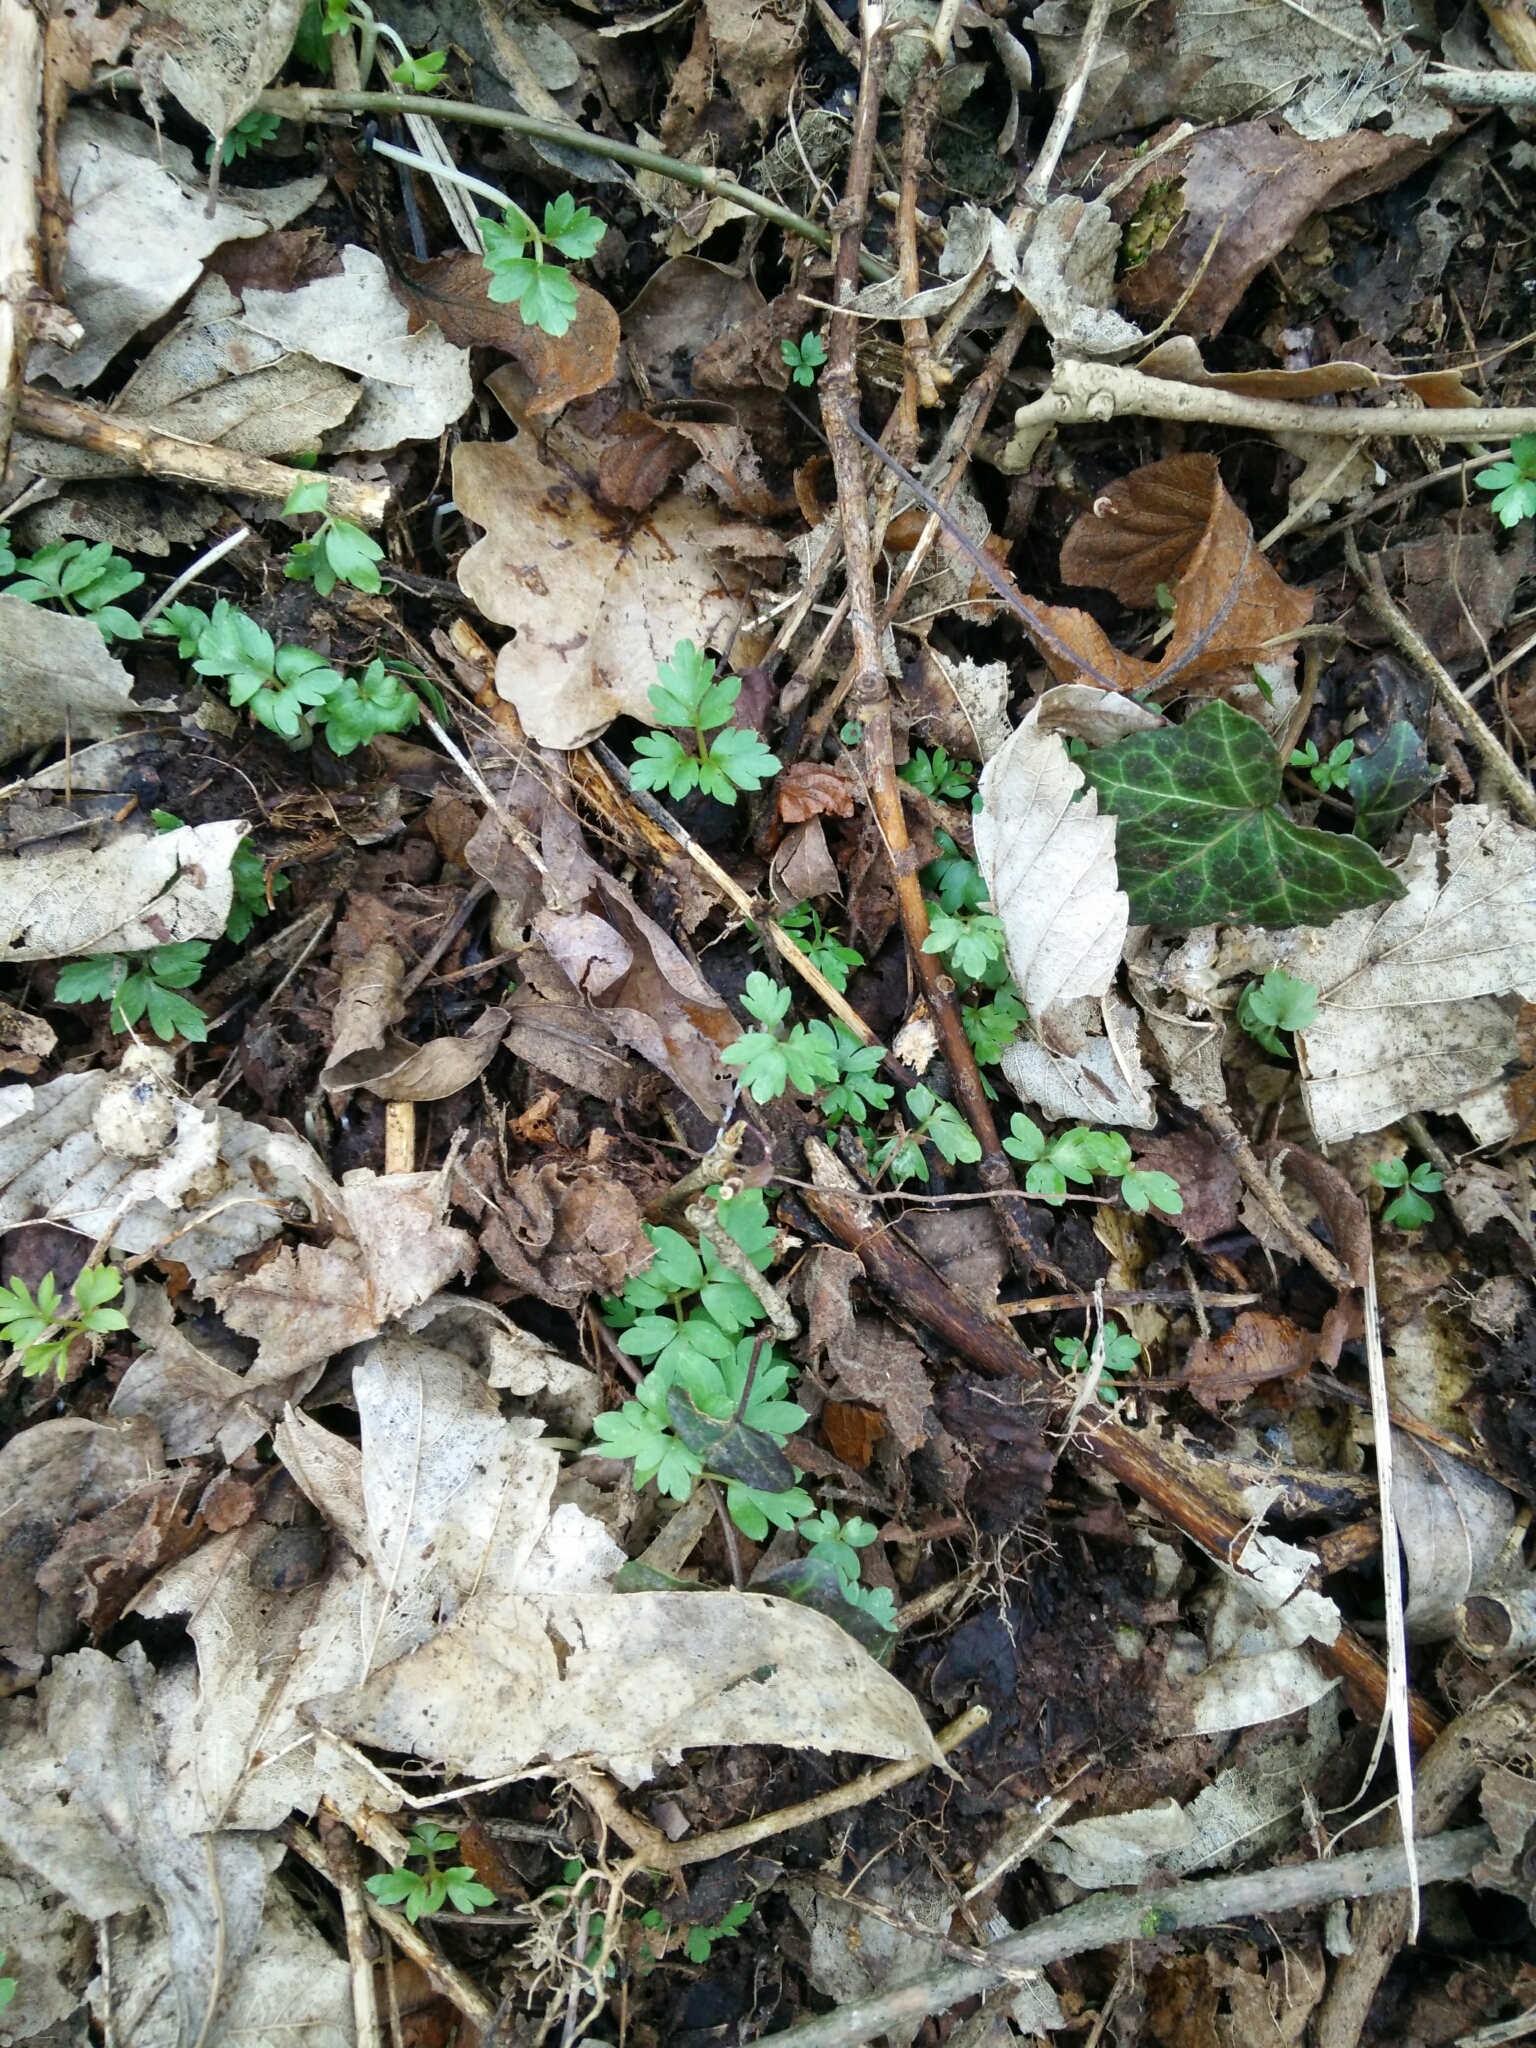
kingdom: Plantae
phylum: Tracheophyta
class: Magnoliopsida
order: Dipsacales
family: Viburnaceae
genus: Adoxa
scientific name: Adoxa moschatellina
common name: Moschatel
